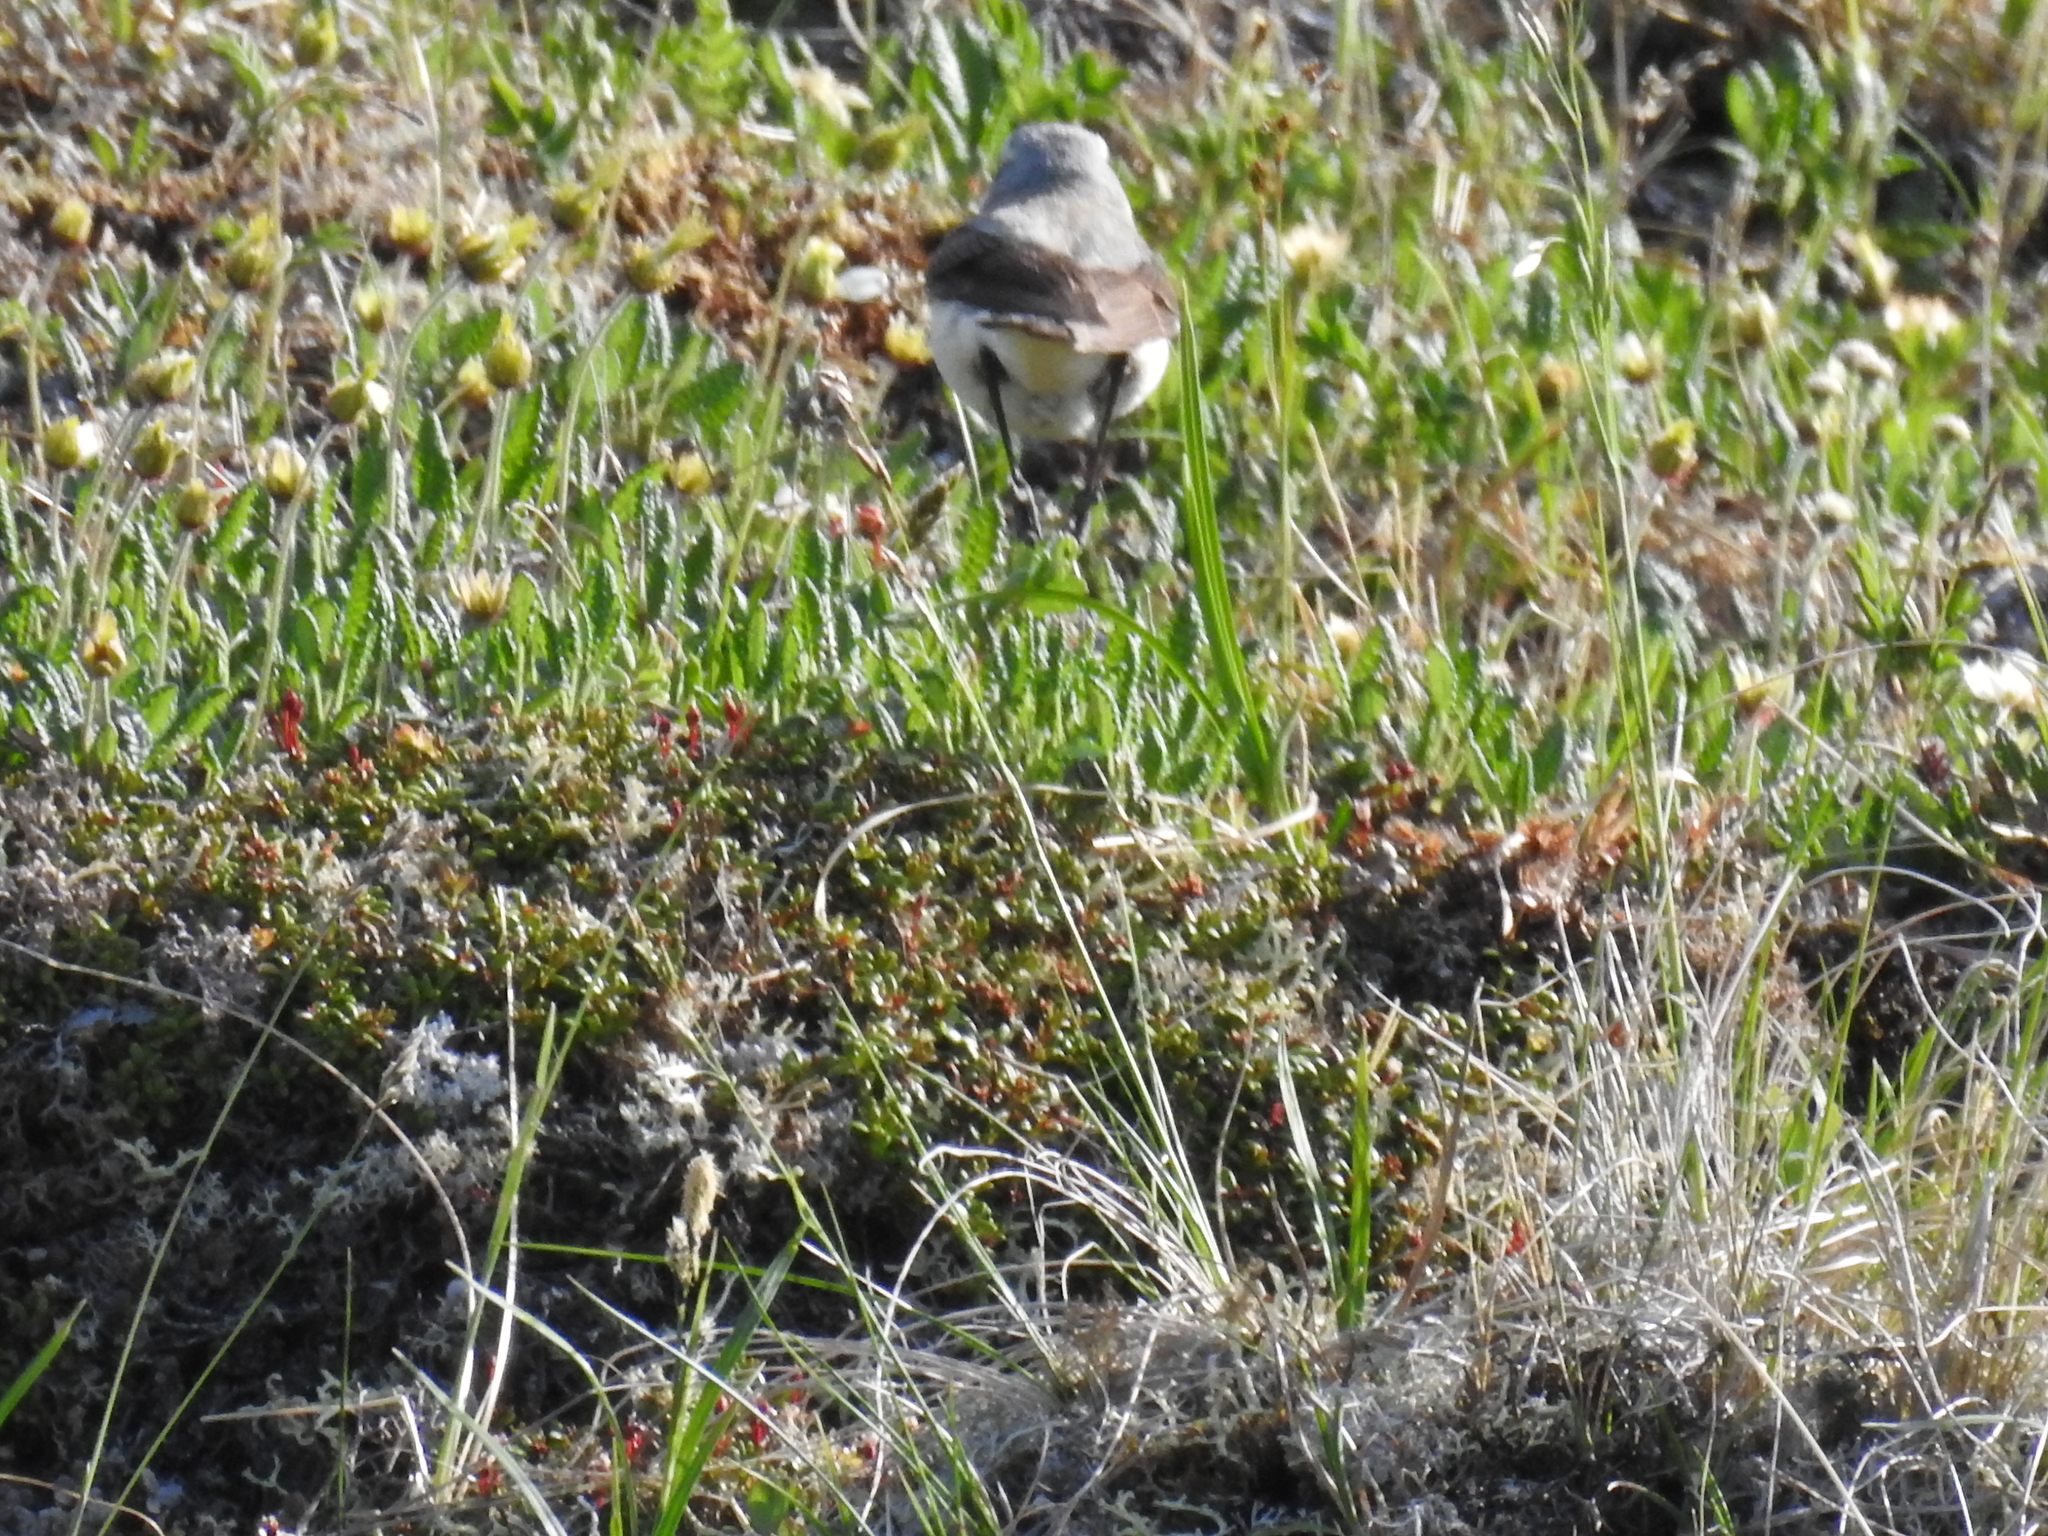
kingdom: Animalia
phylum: Chordata
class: Aves
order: Passeriformes
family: Muscicapidae
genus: Oenanthe
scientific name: Oenanthe oenanthe
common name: Northern wheatear
